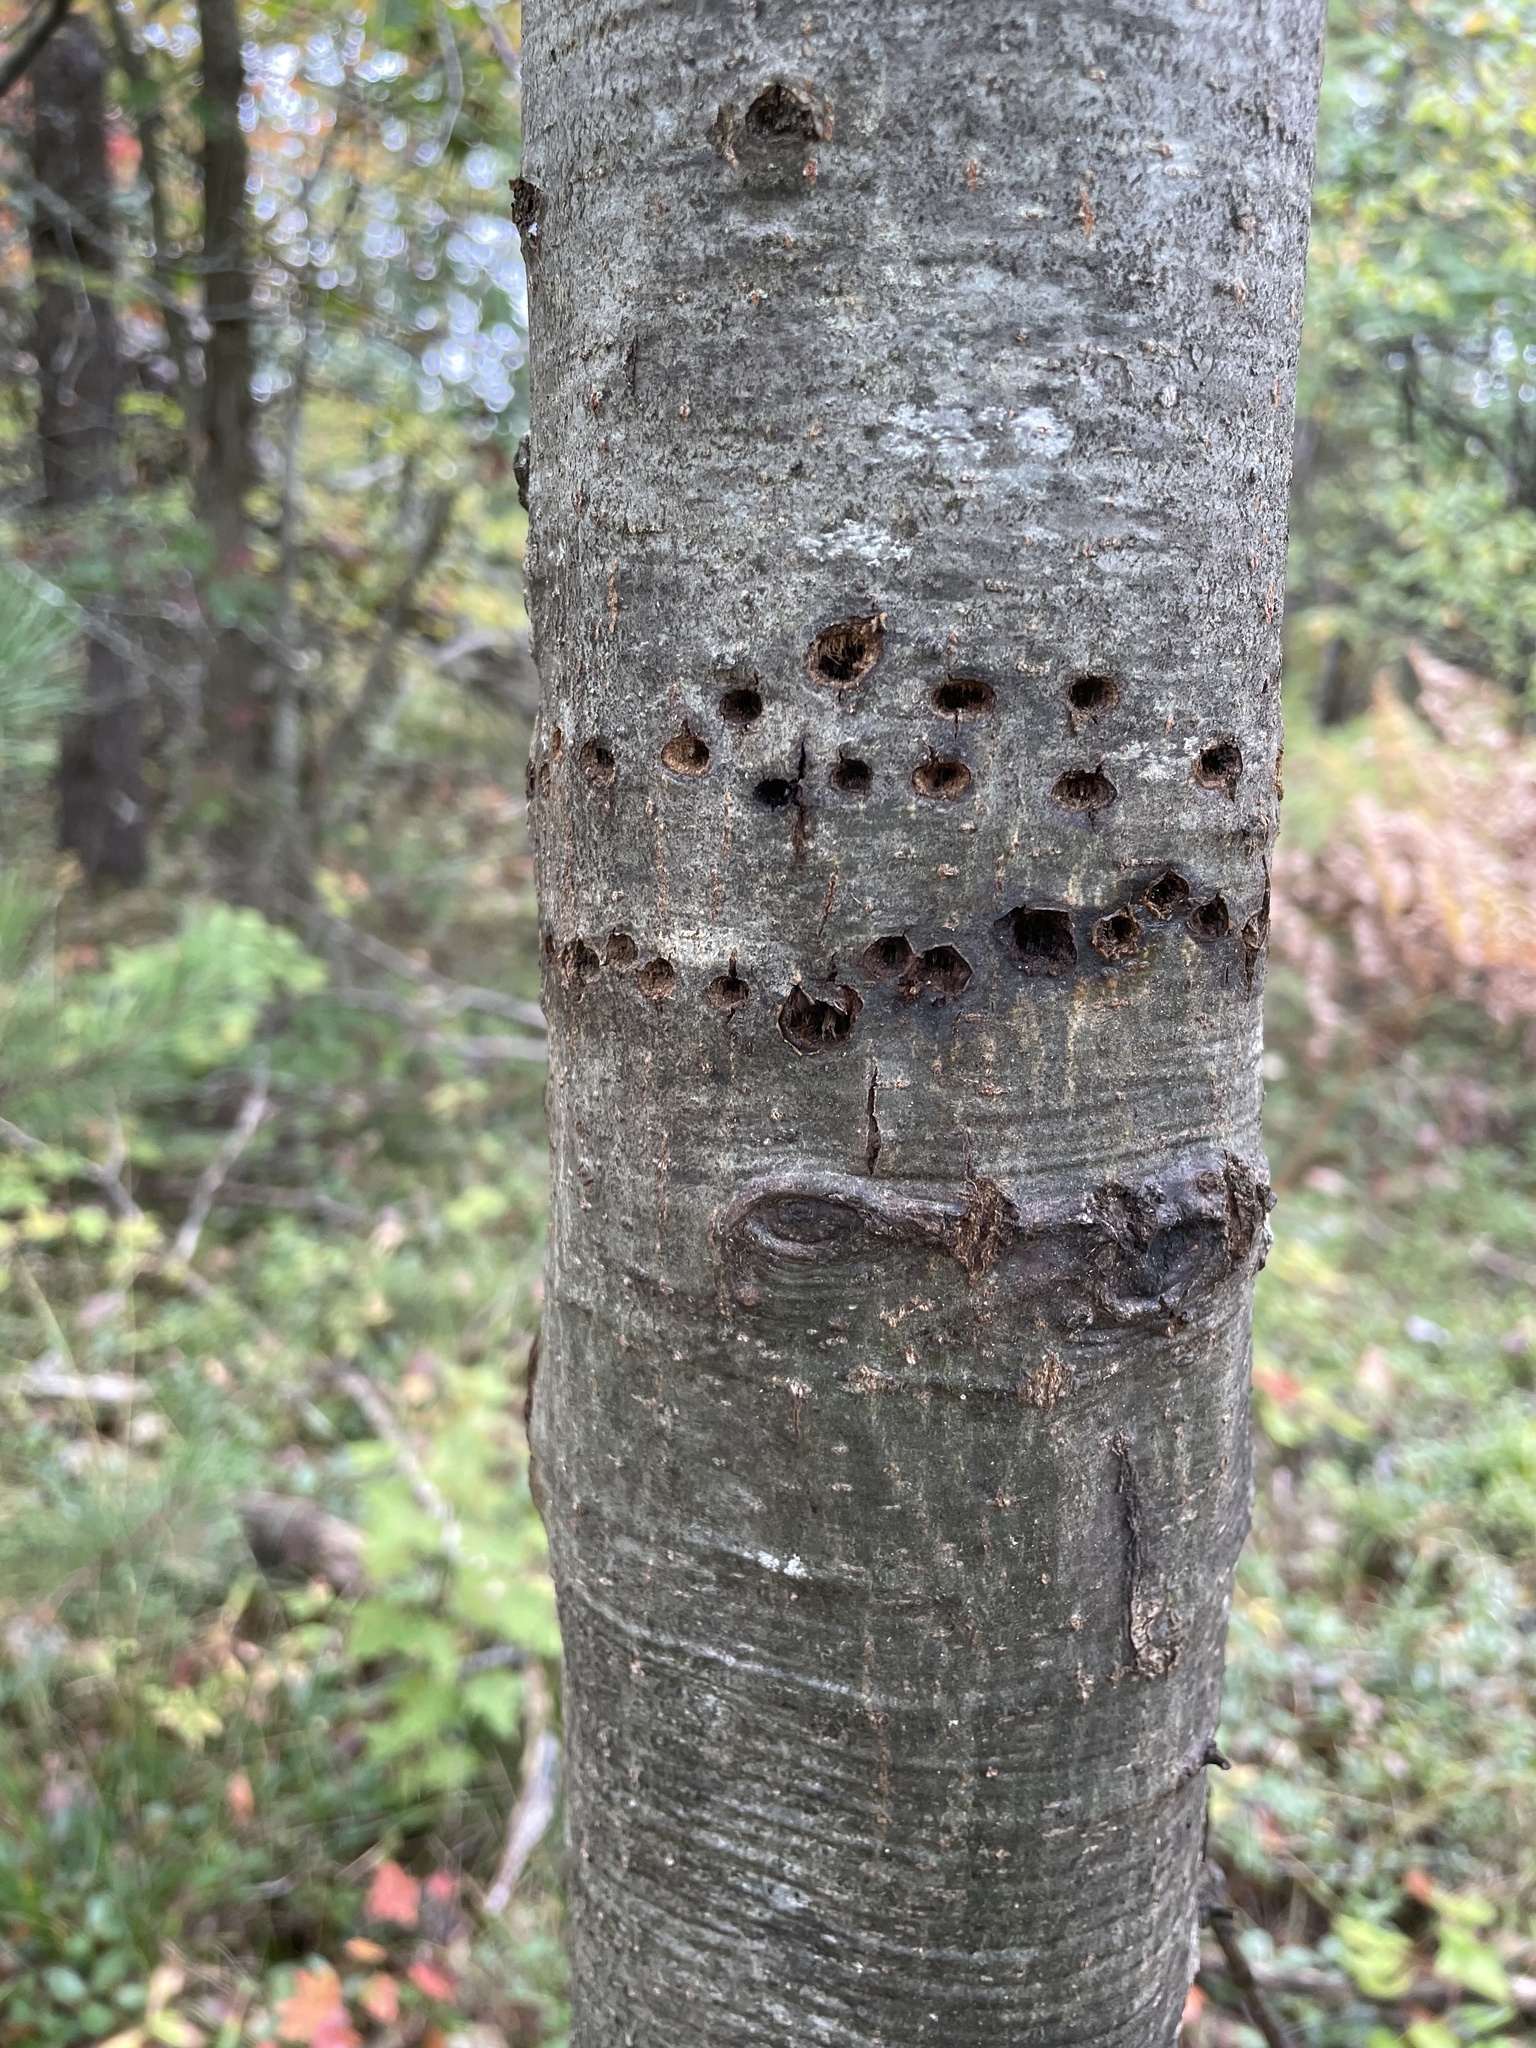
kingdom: Animalia
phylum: Chordata
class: Aves
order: Piciformes
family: Picidae
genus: Sphyrapicus
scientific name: Sphyrapicus varius
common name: Yellow-bellied sapsucker
